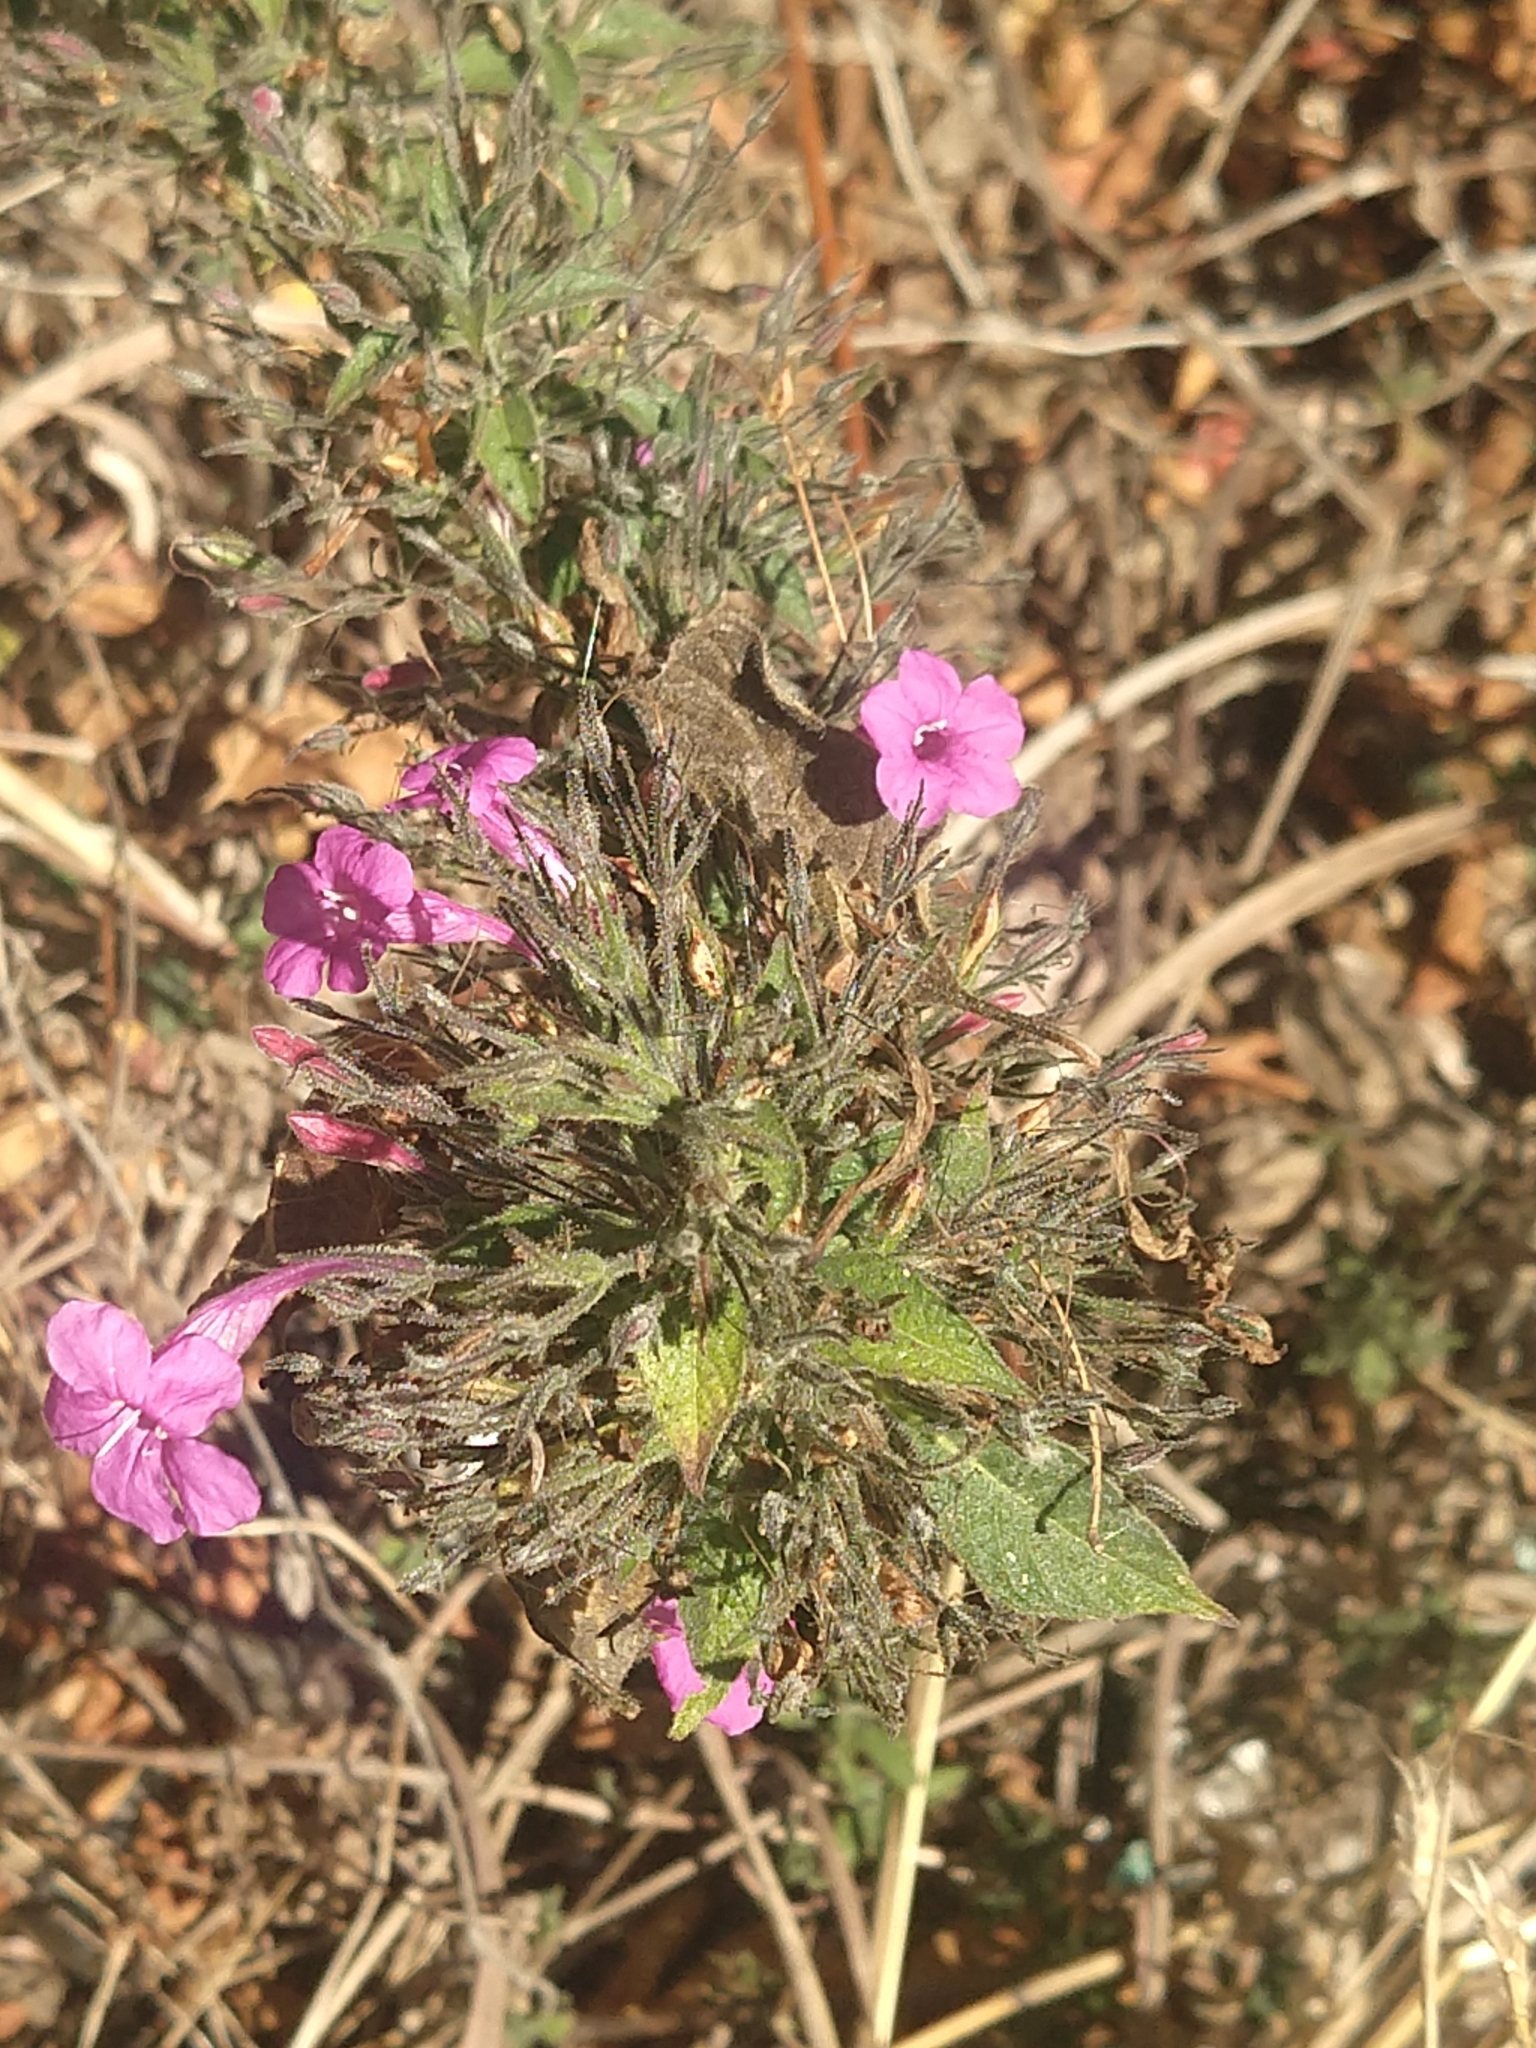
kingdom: Plantae
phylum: Tracheophyta
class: Magnoliopsida
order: Lamiales
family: Acanthaceae
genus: Ruellia
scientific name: Ruellia inundata
